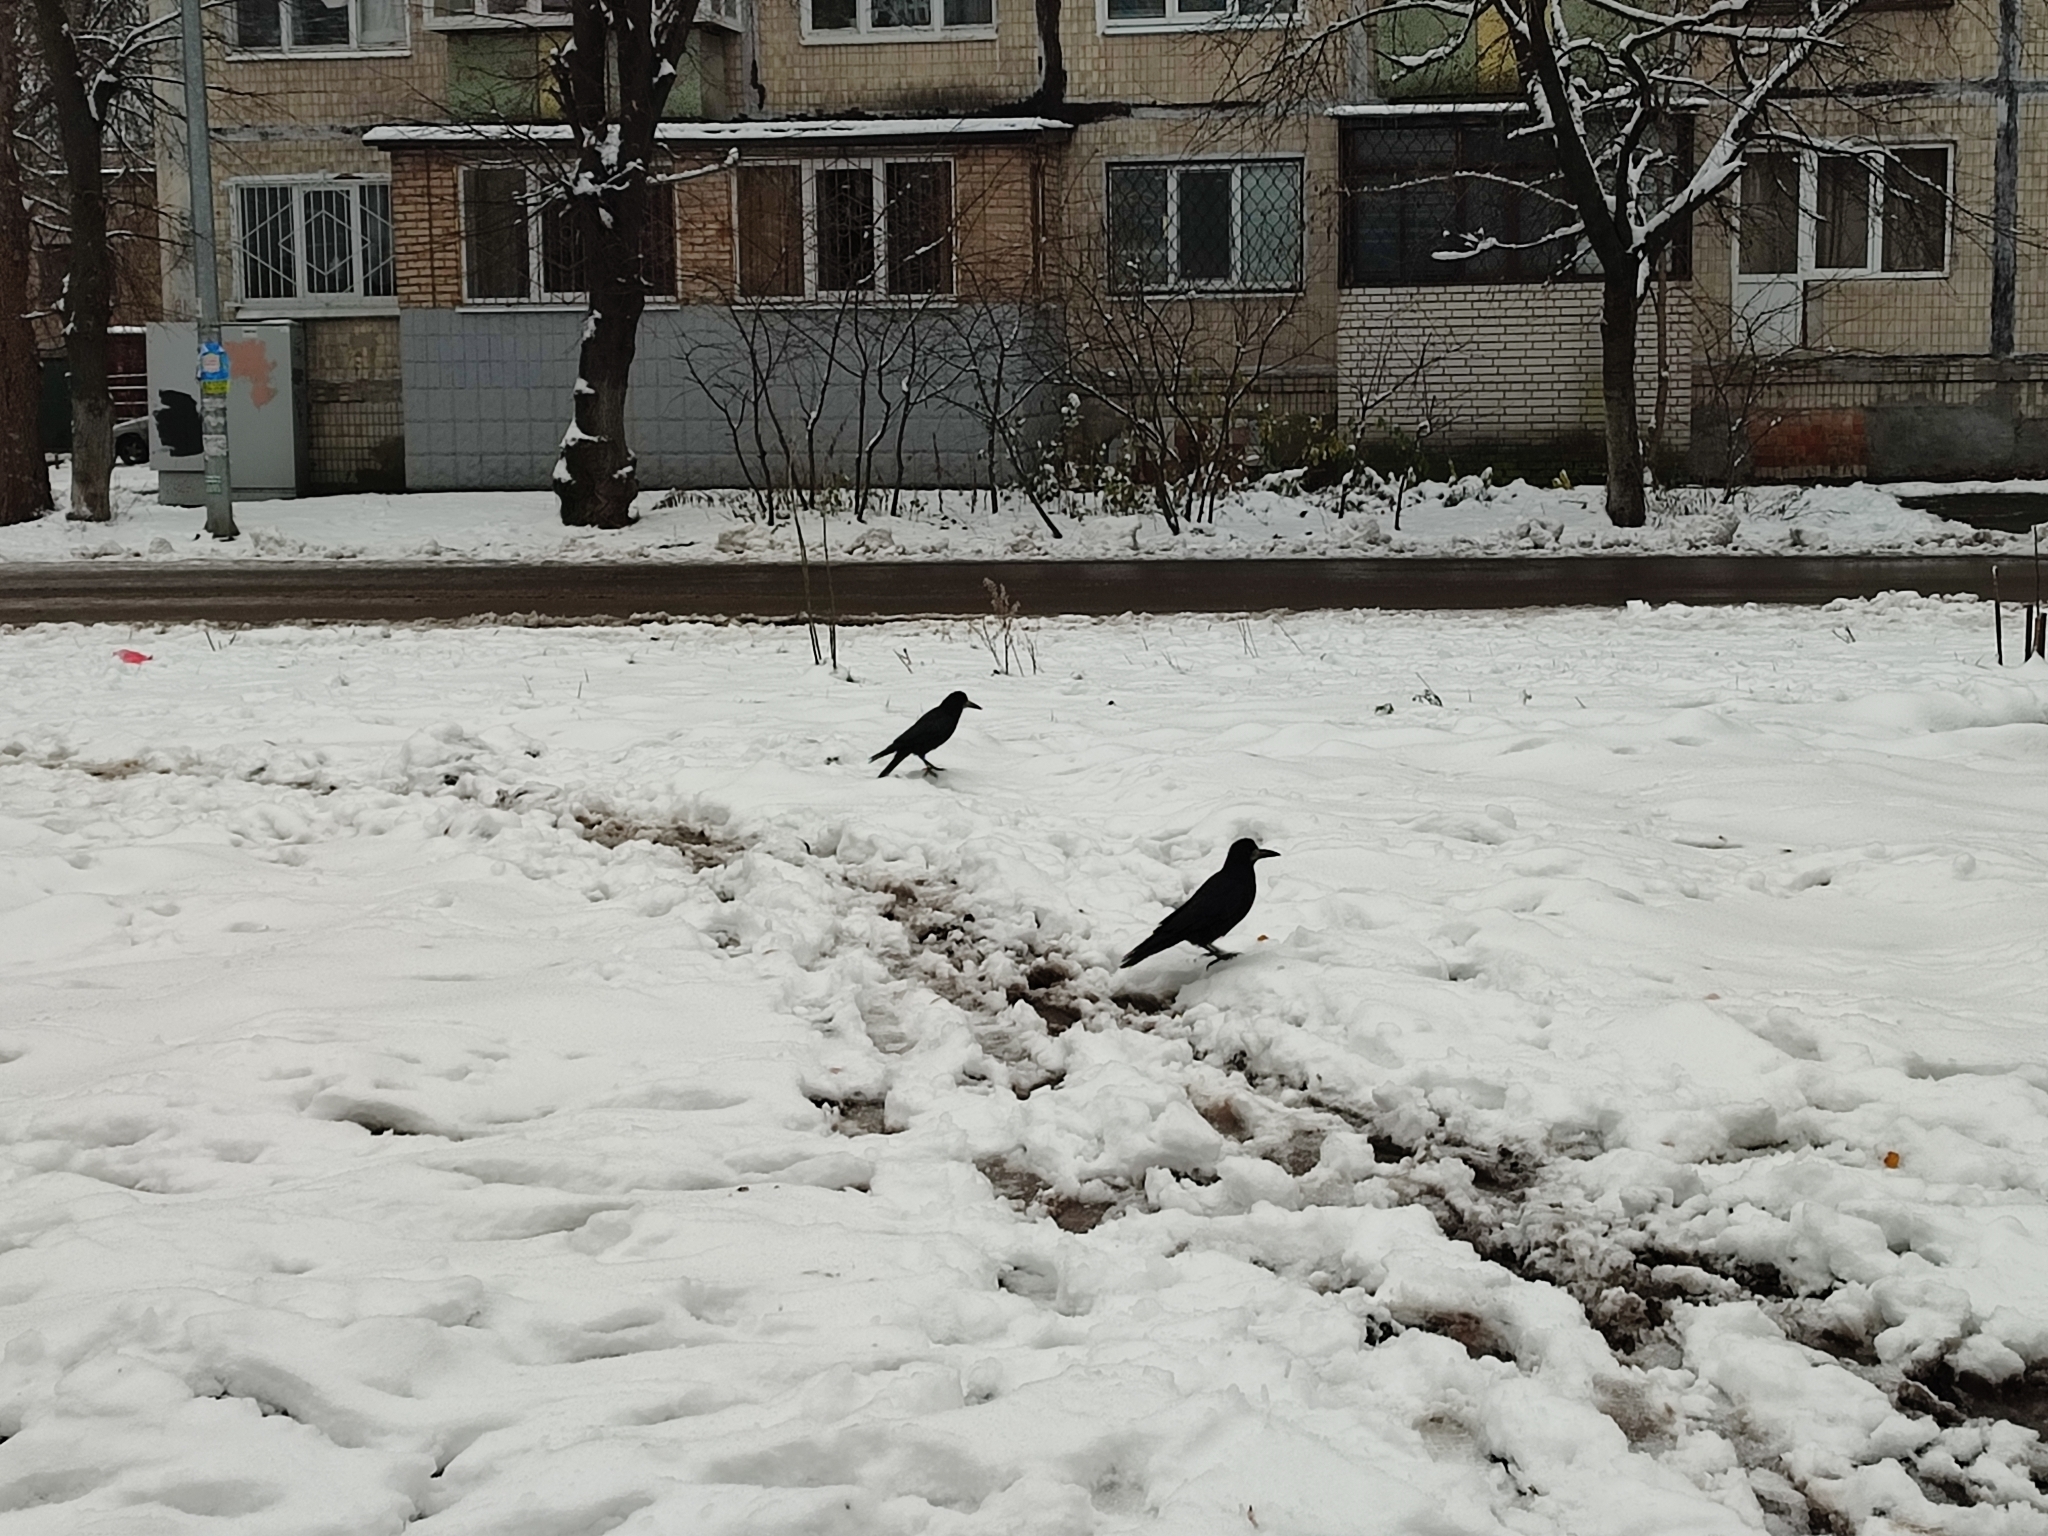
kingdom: Animalia
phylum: Chordata
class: Aves
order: Passeriformes
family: Corvidae
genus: Corvus
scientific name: Corvus frugilegus
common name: Rook
